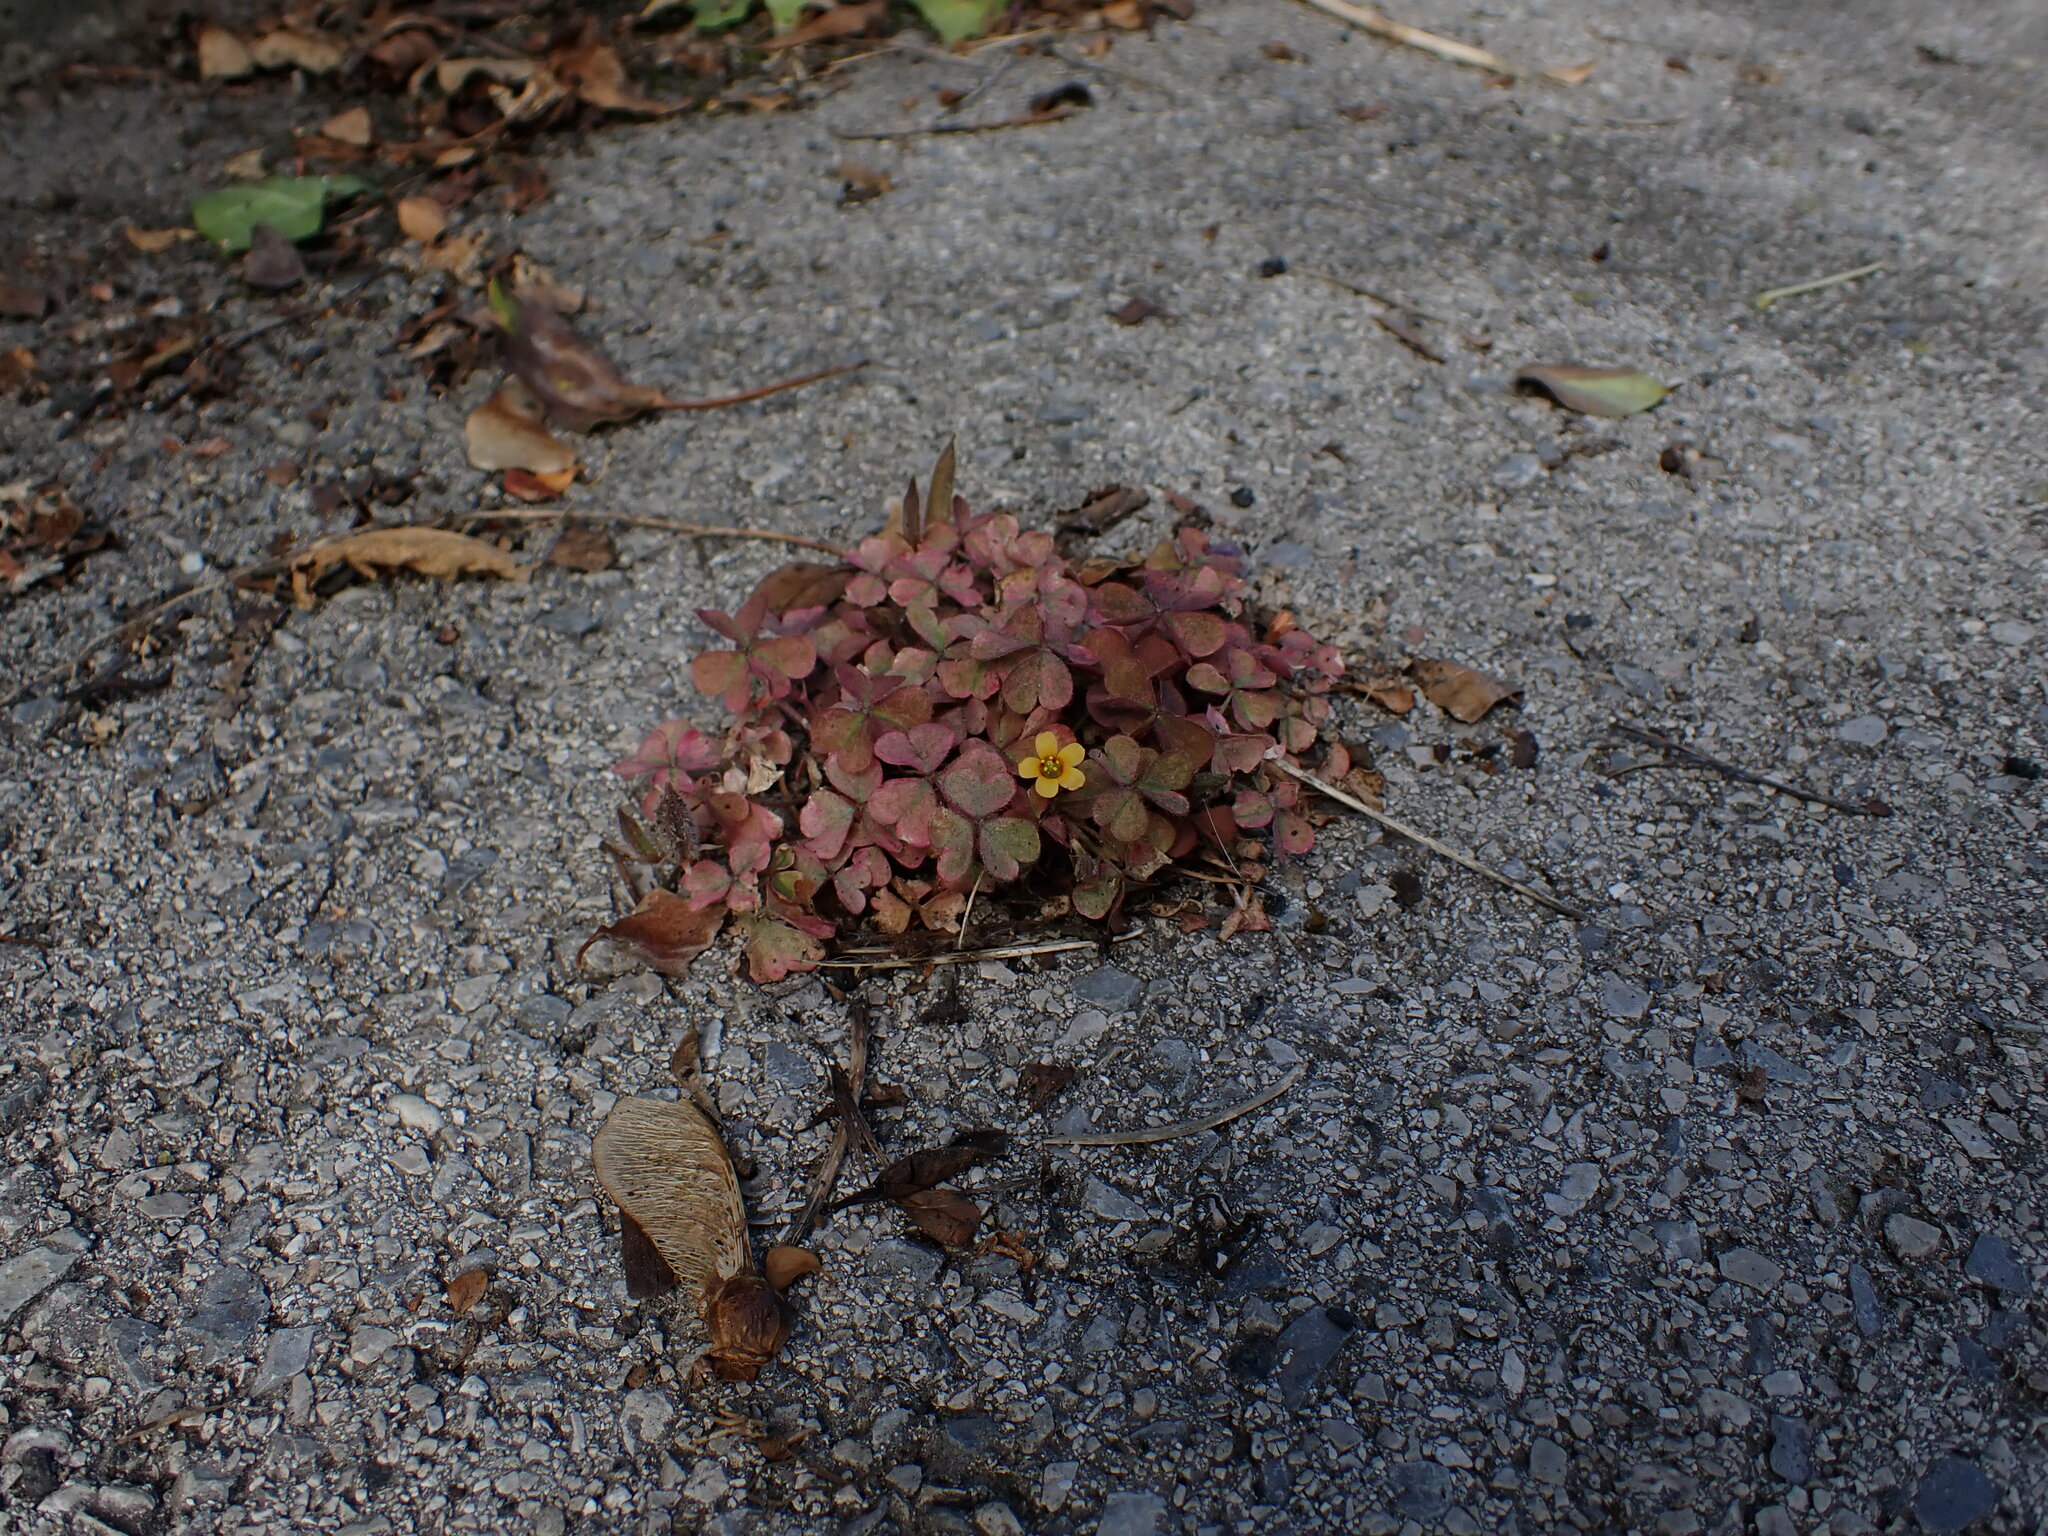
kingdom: Plantae
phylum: Tracheophyta
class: Magnoliopsida
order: Oxalidales
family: Oxalidaceae
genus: Oxalis
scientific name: Oxalis corniculata
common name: Procumbent yellow-sorrel
